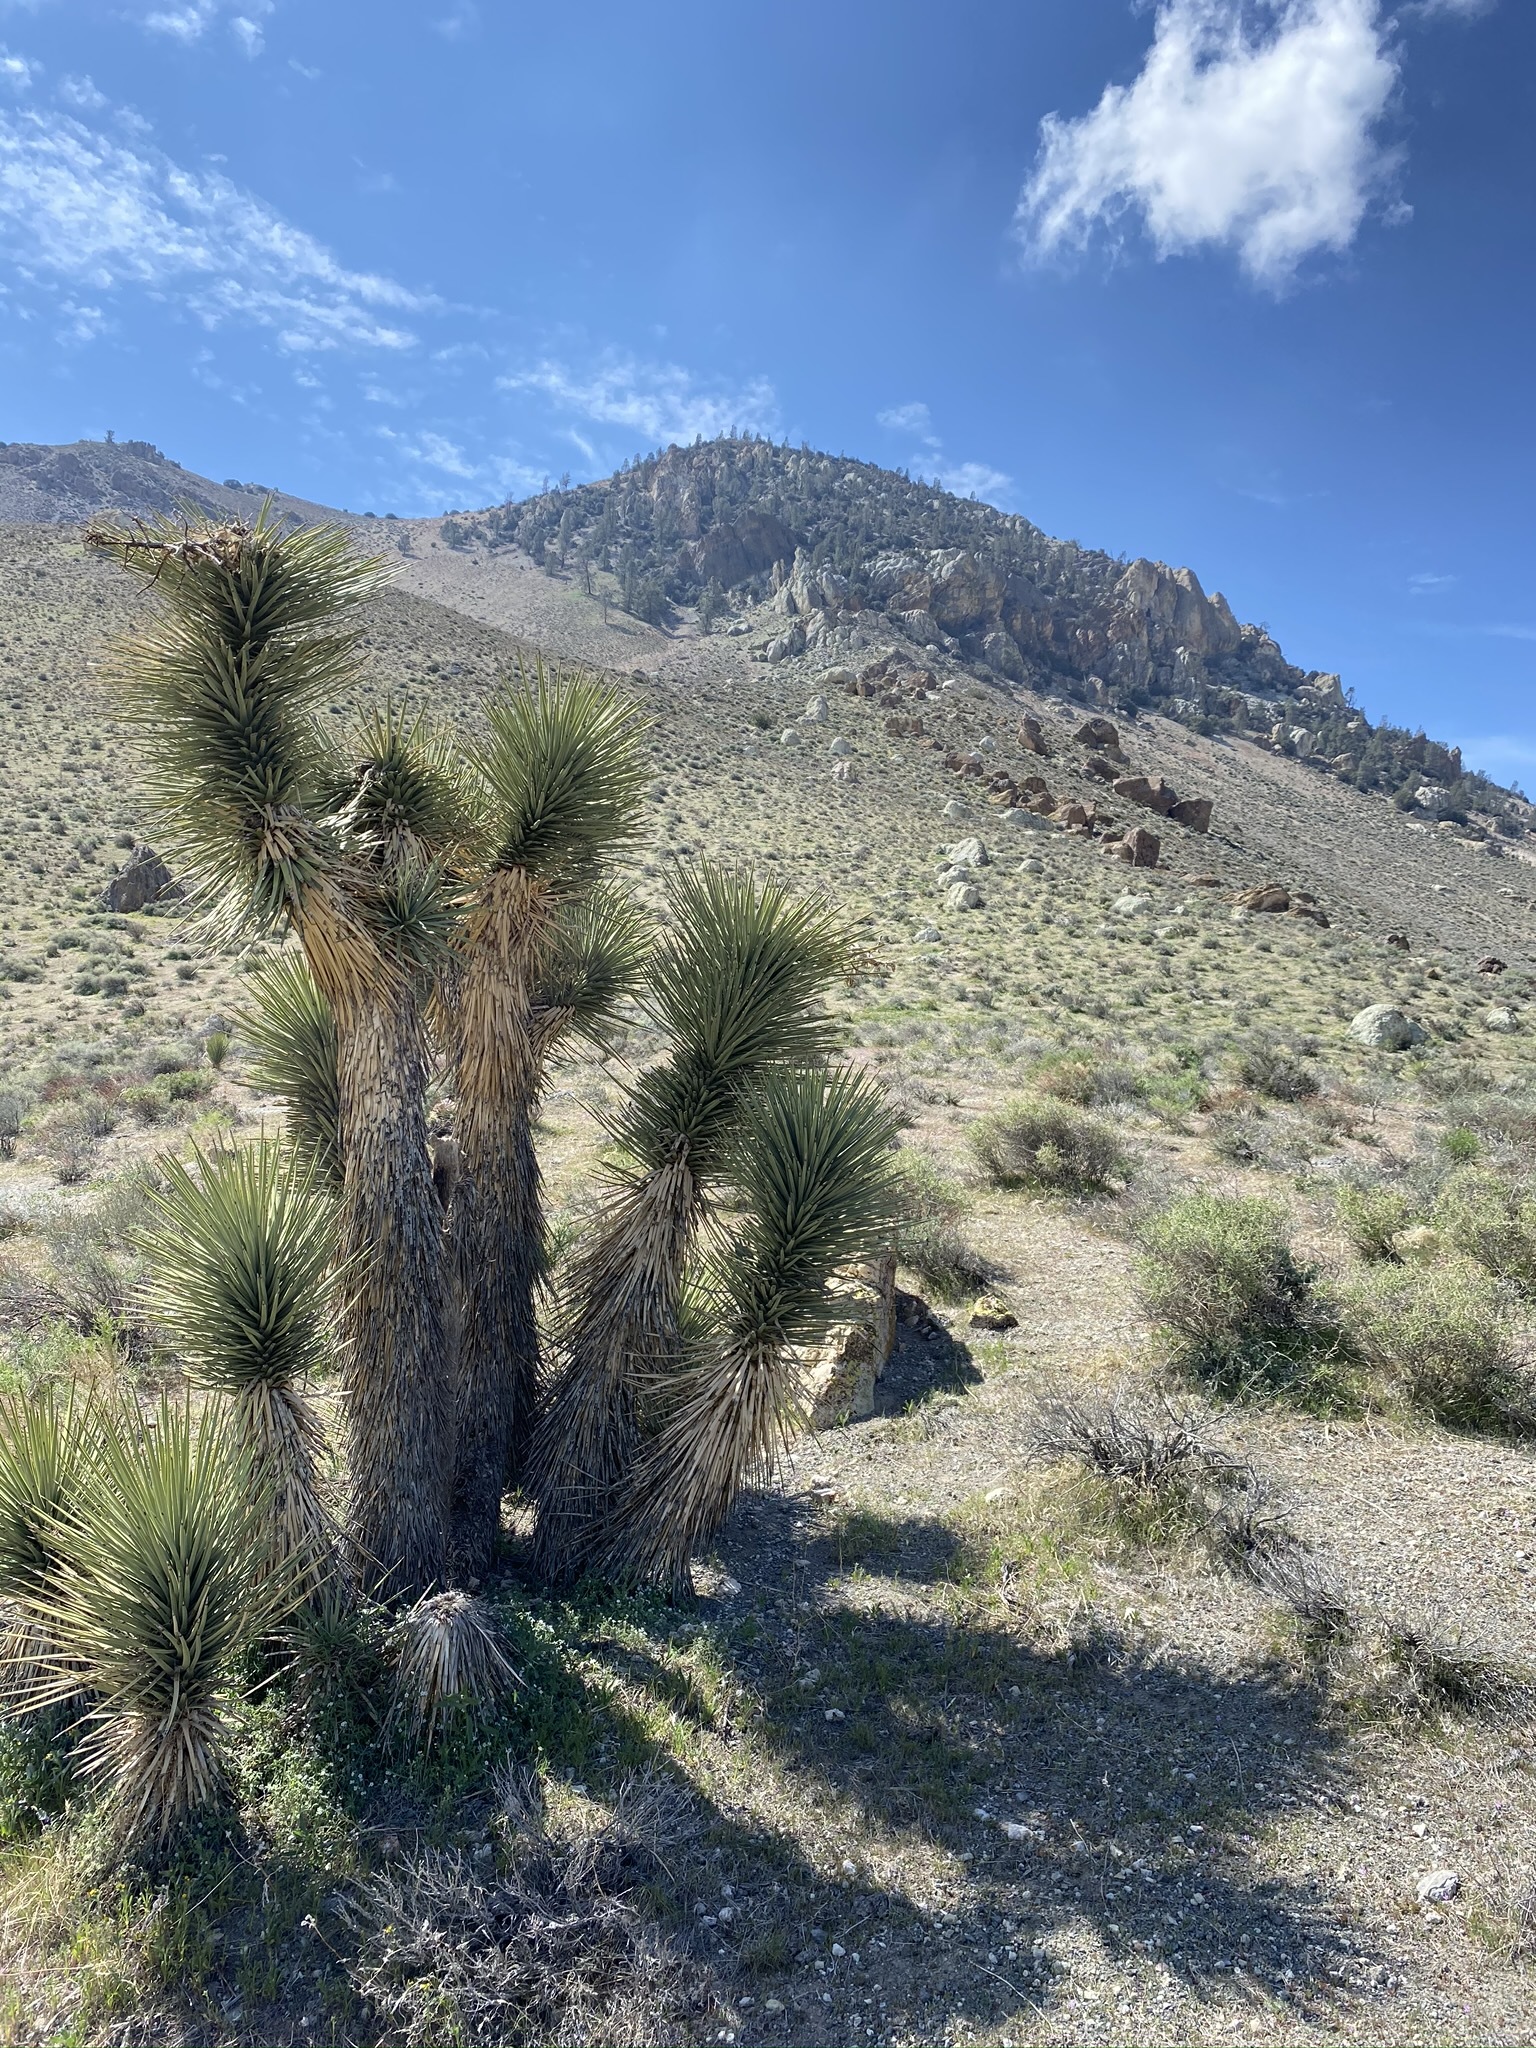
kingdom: Plantae
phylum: Tracheophyta
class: Liliopsida
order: Asparagales
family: Asparagaceae
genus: Yucca
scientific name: Yucca brevifolia
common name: Joshua tree
